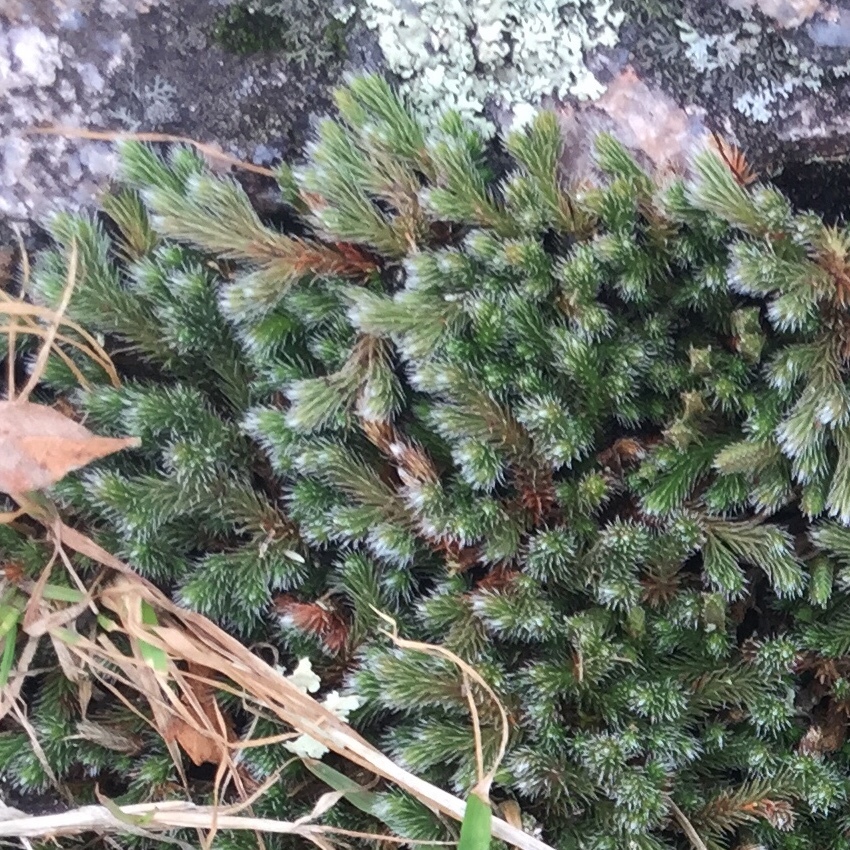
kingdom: Plantae
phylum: Tracheophyta
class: Lycopodiopsida
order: Selaginellales
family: Selaginellaceae
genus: Selaginella
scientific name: Selaginella rupestris
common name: Dwarf spikemoss
